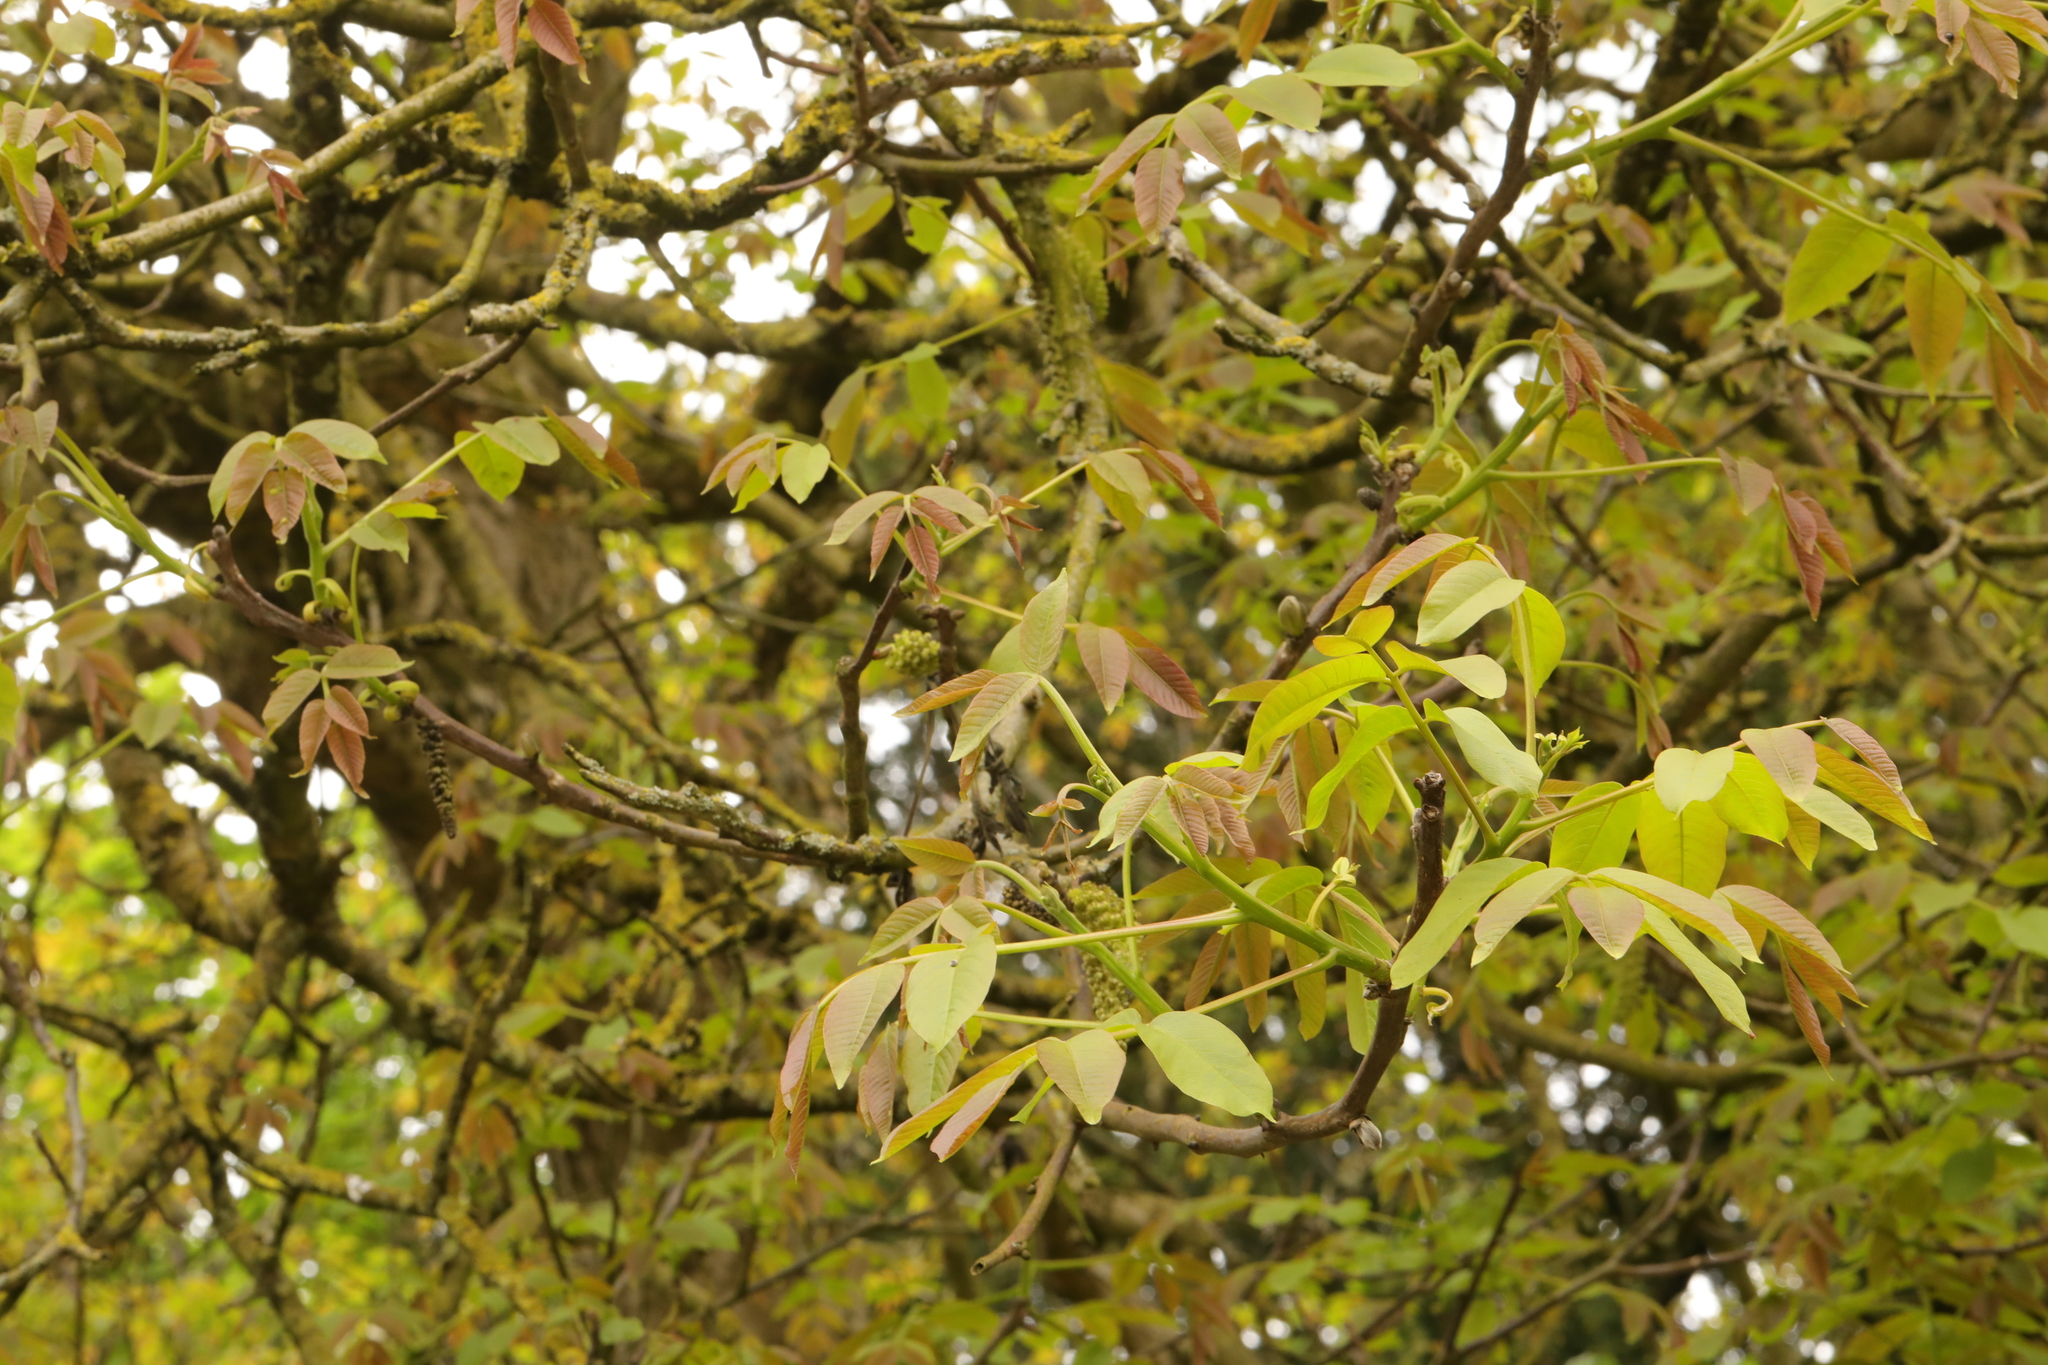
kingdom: Plantae
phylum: Tracheophyta
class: Magnoliopsida
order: Fagales
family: Juglandaceae
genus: Juglans
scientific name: Juglans regia
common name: Walnut
